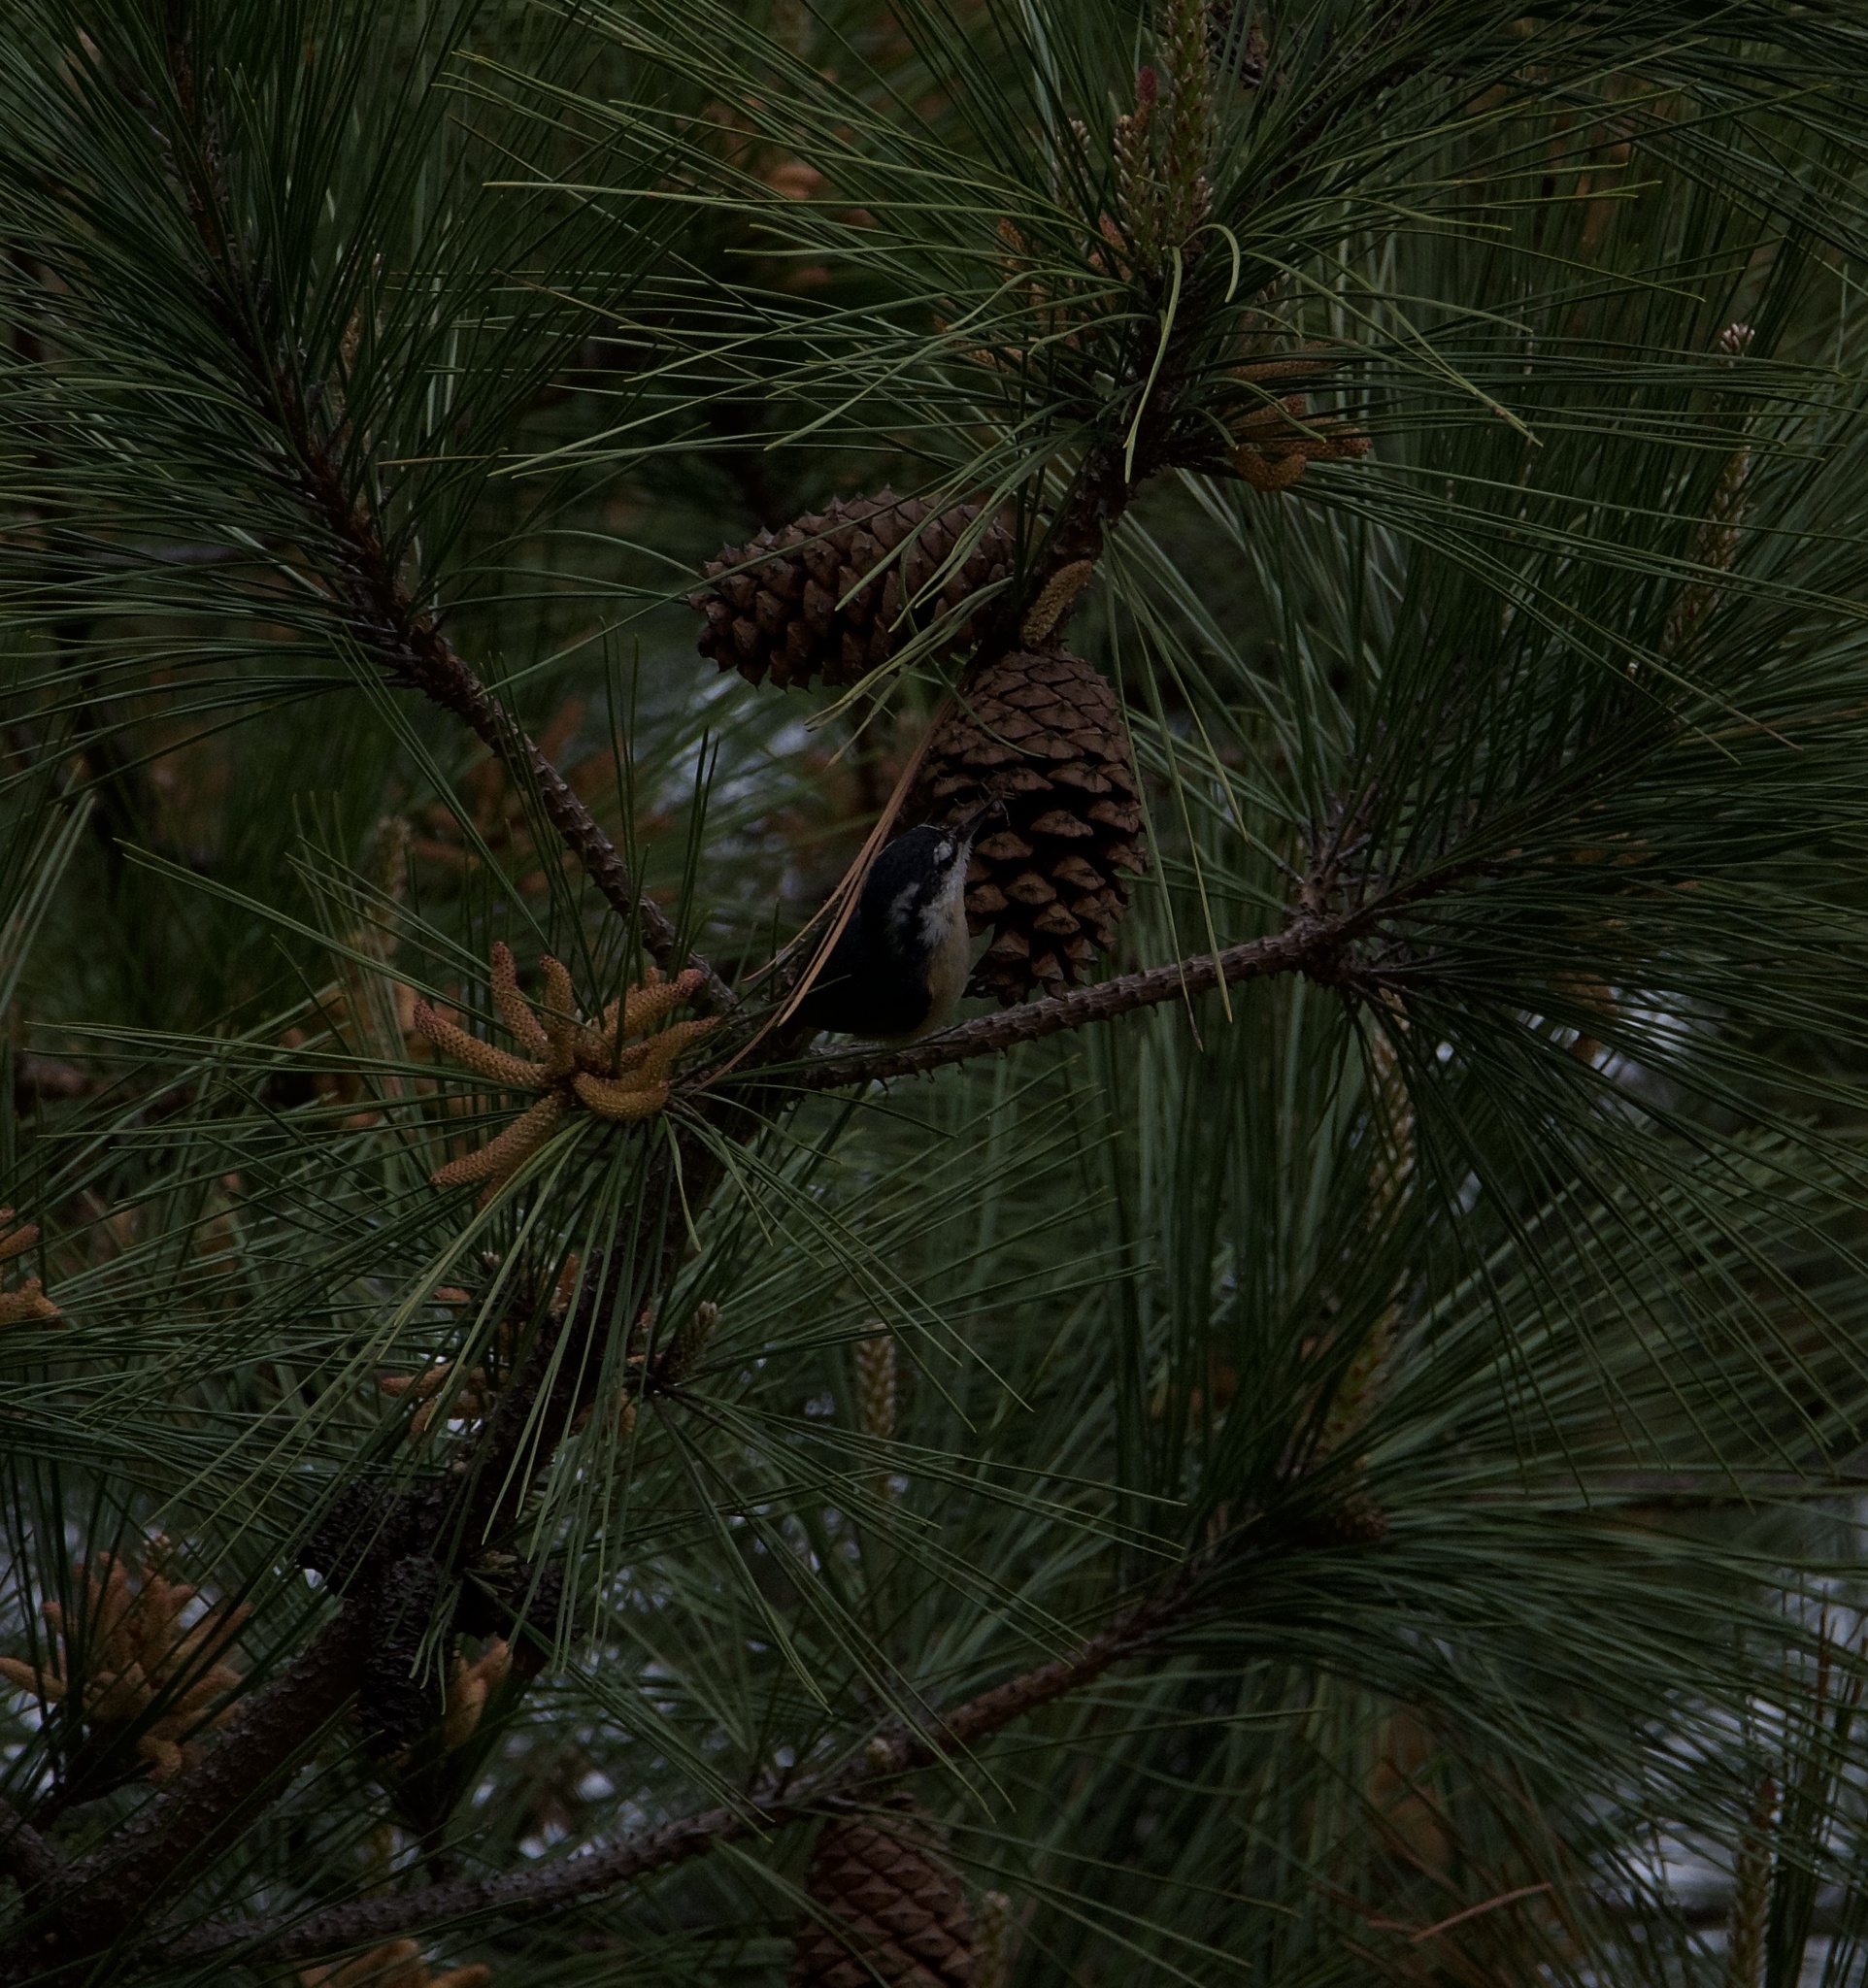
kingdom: Animalia
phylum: Chordata
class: Aves
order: Passeriformes
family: Sittidae
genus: Sitta
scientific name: Sitta canadensis
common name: Red-breasted nuthatch
